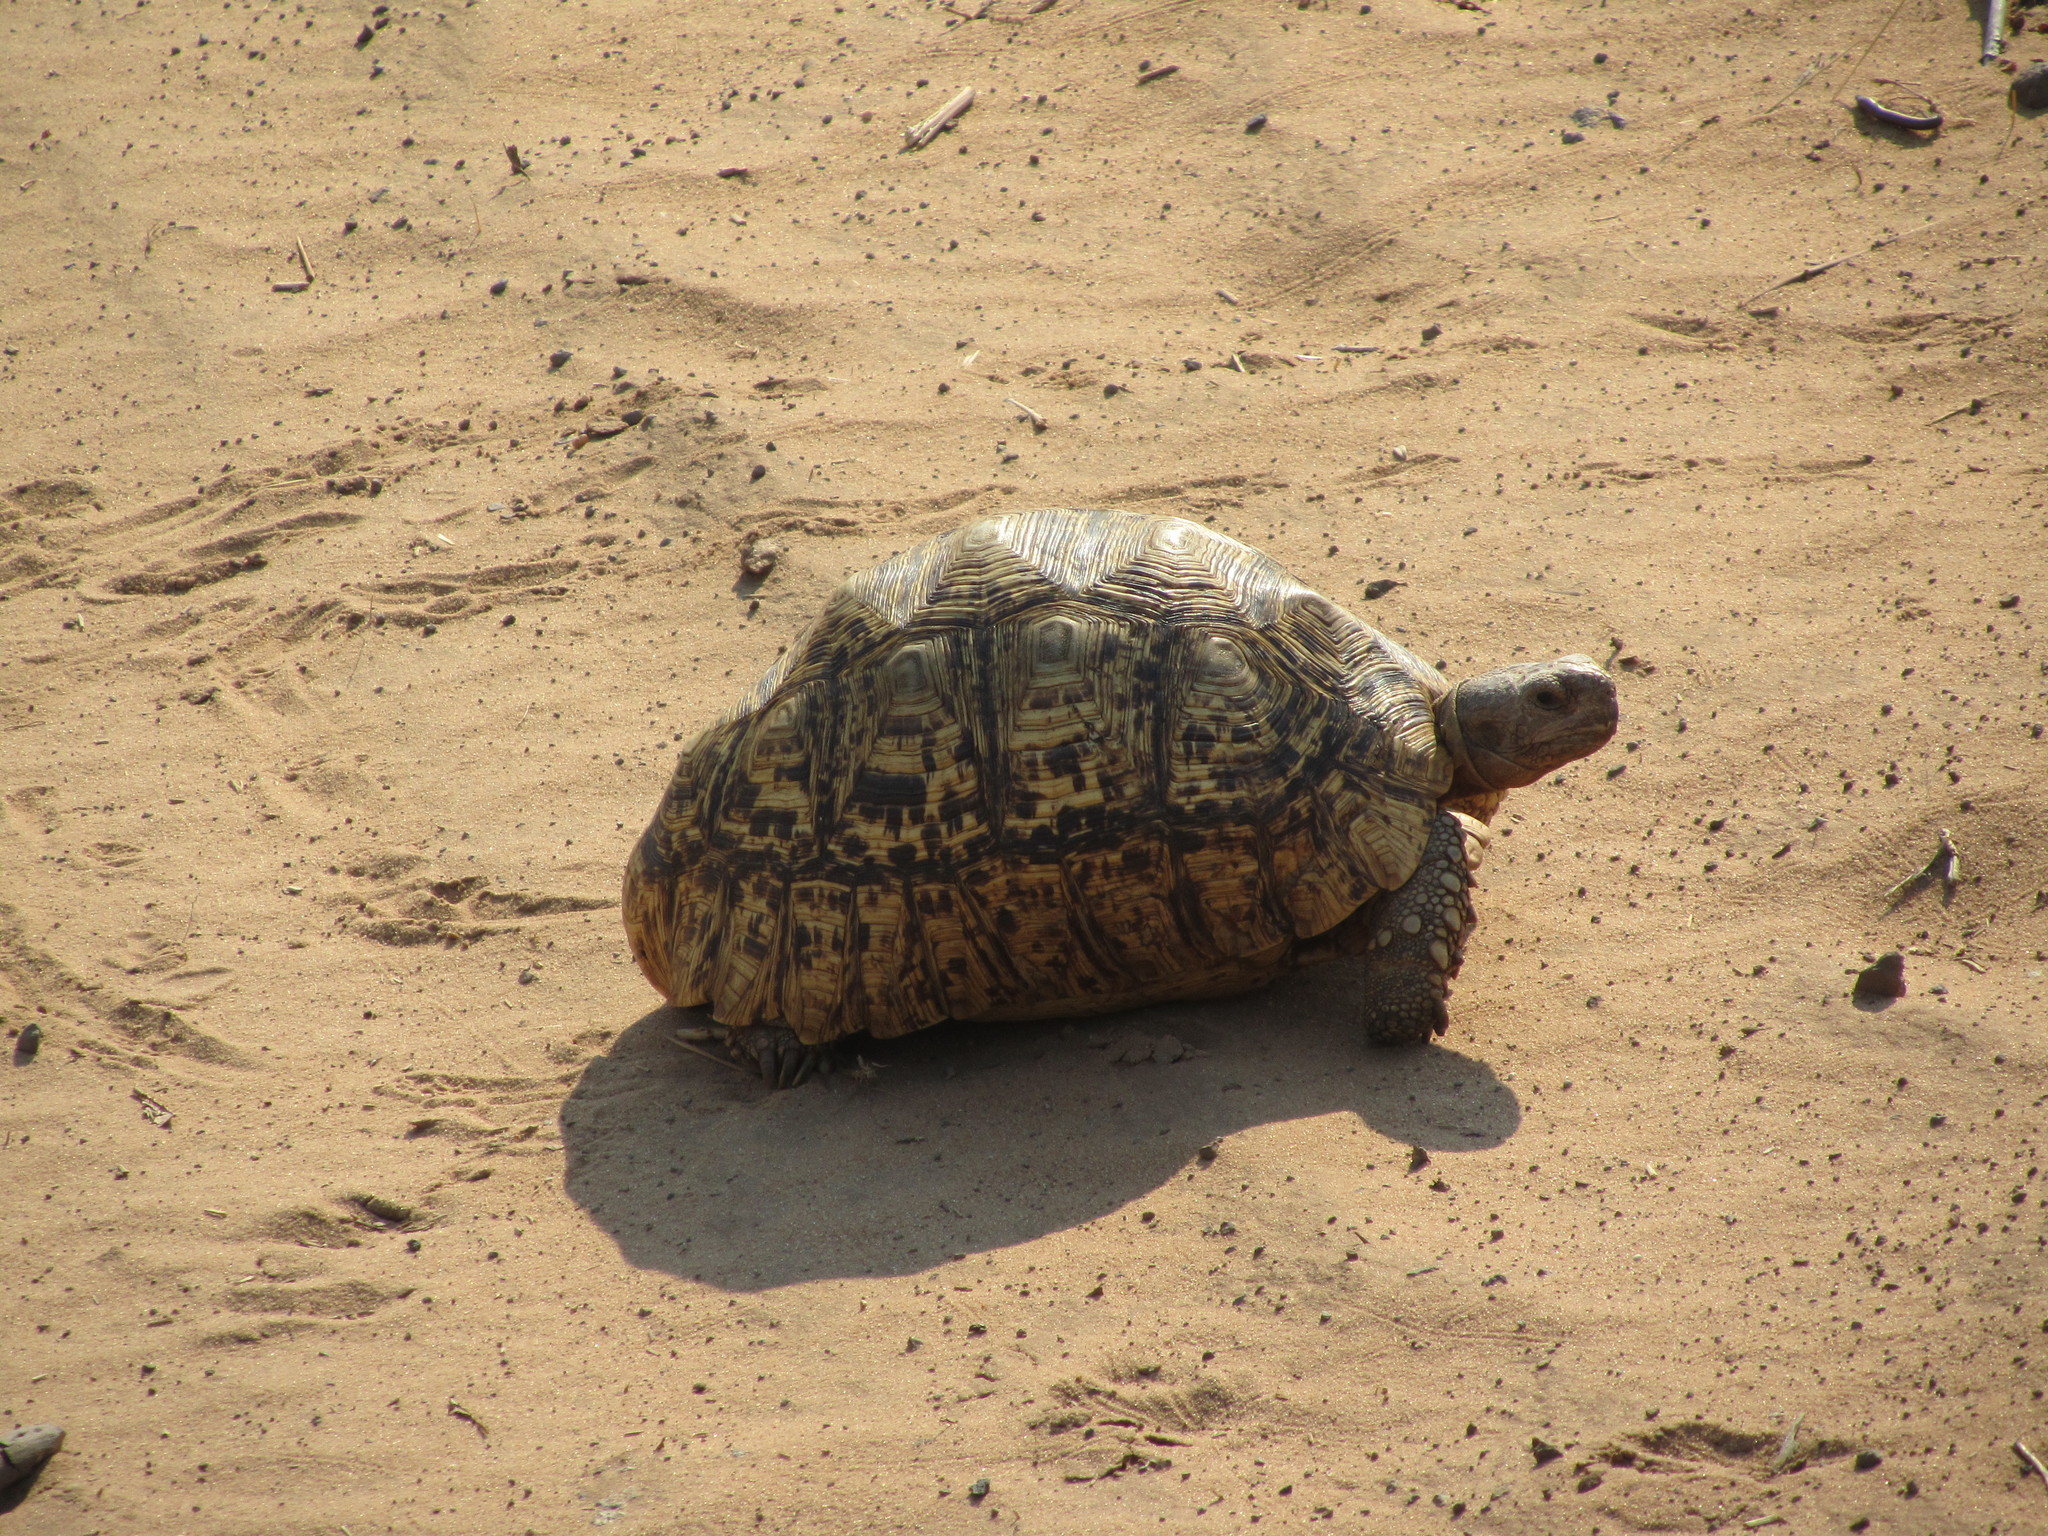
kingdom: Animalia
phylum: Chordata
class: Testudines
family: Testudinidae
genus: Stigmochelys
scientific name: Stigmochelys pardalis
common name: Leopard tortoise
